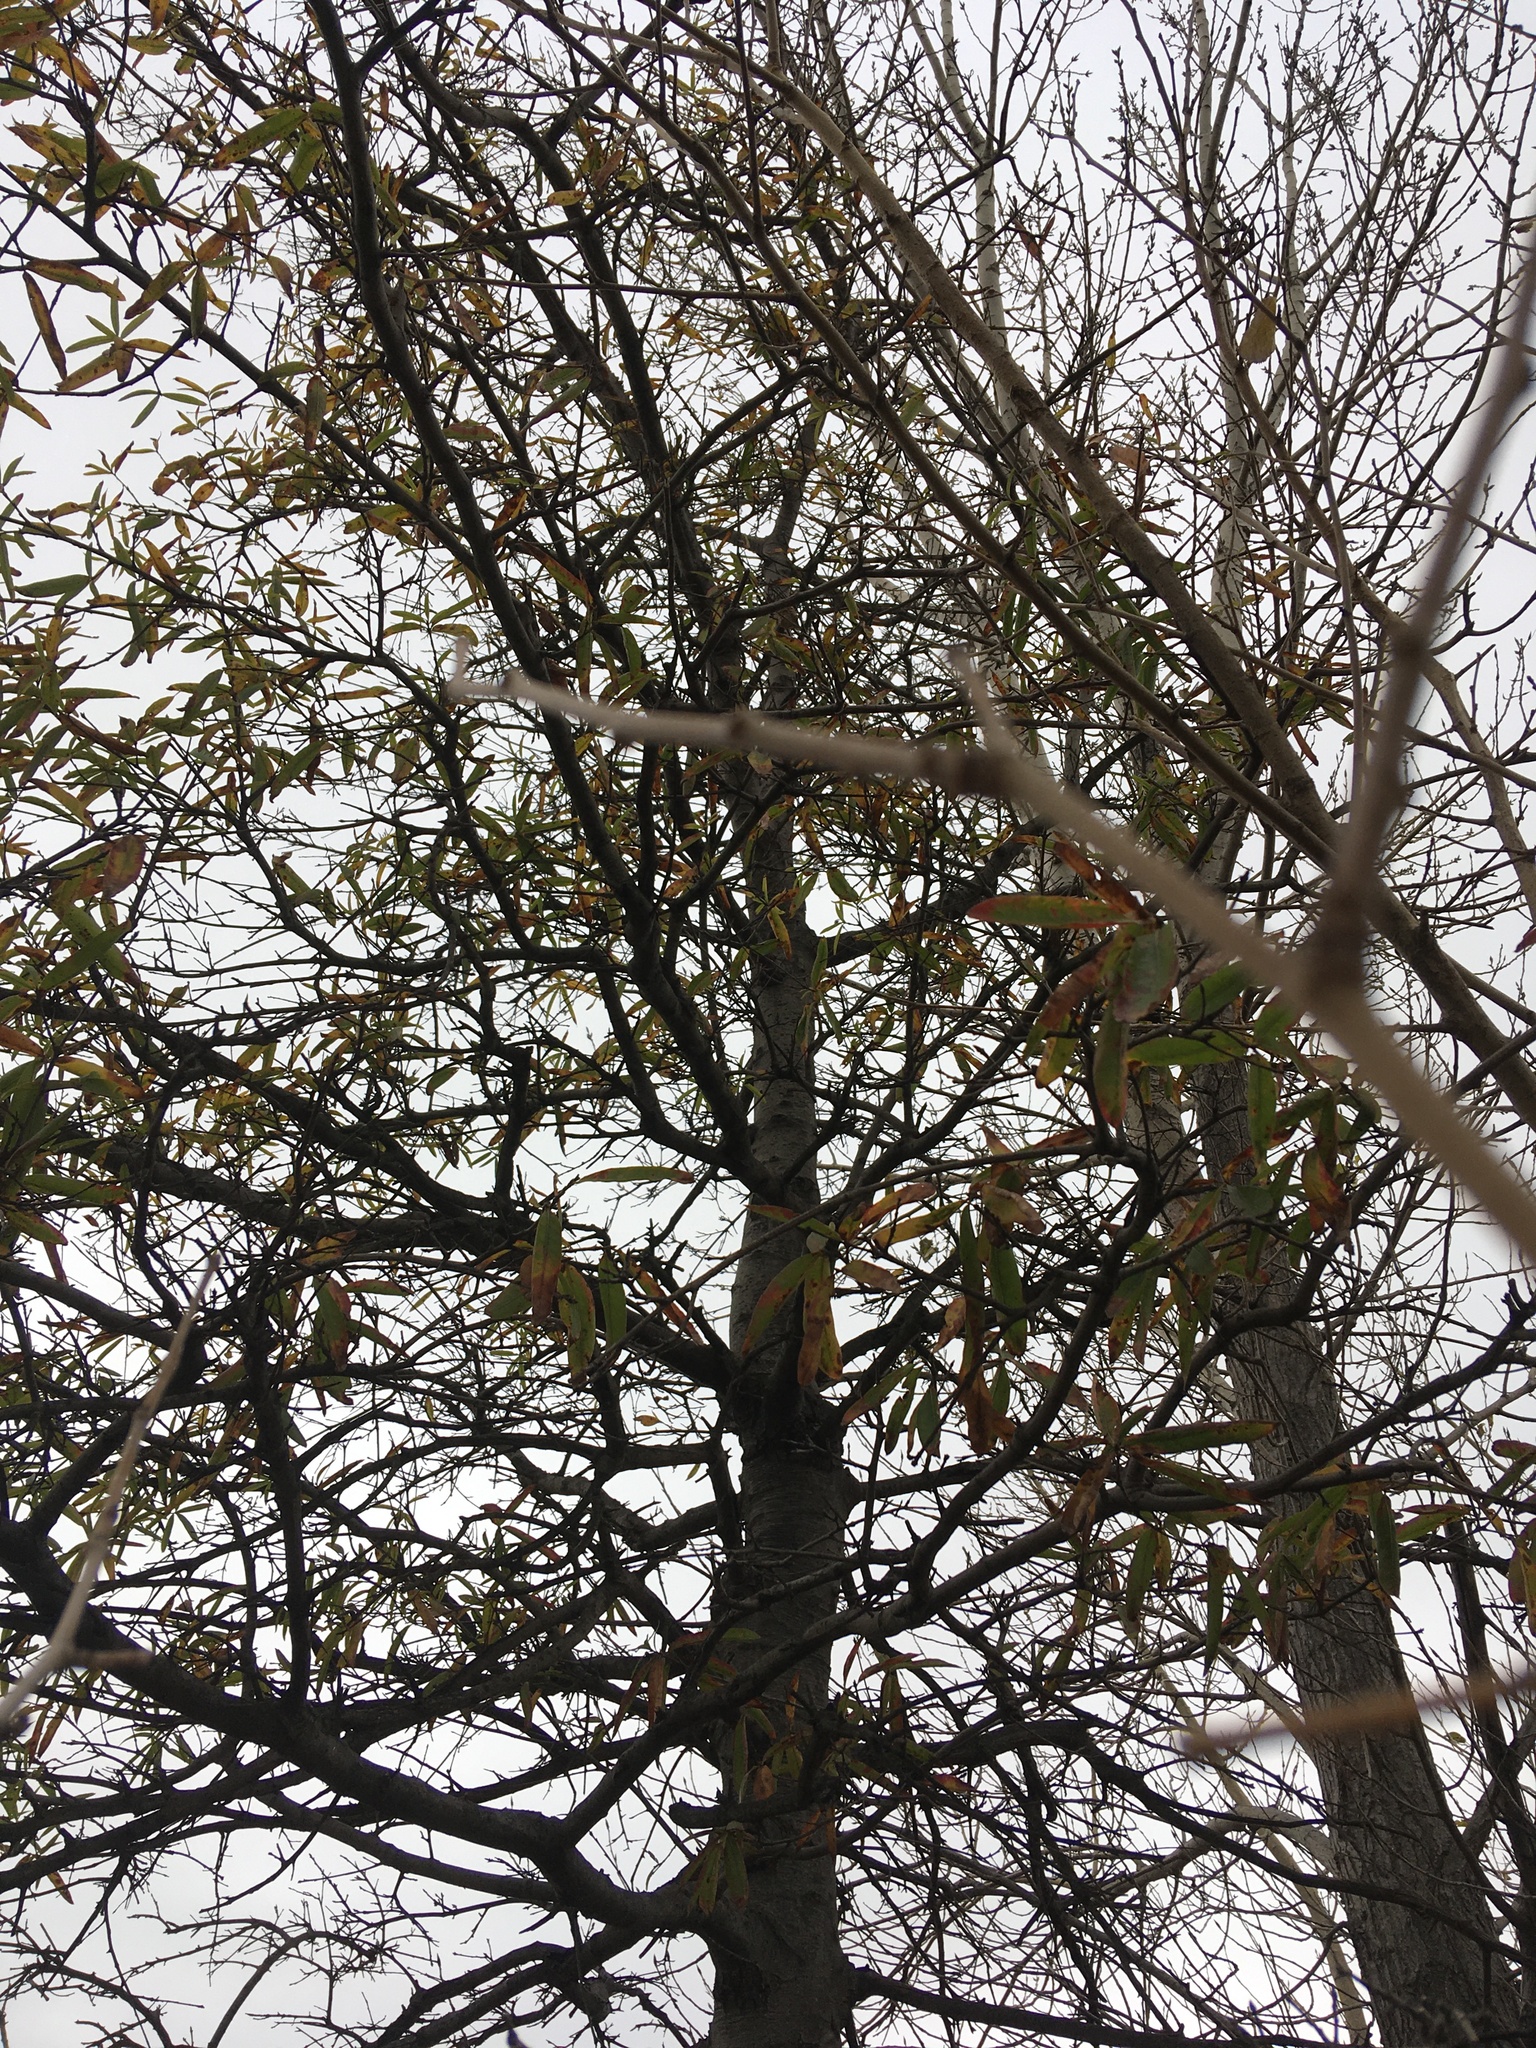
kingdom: Plantae
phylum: Tracheophyta
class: Magnoliopsida
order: Fagales
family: Fagaceae
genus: Quercus
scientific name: Quercus phellos
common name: Willow oak
